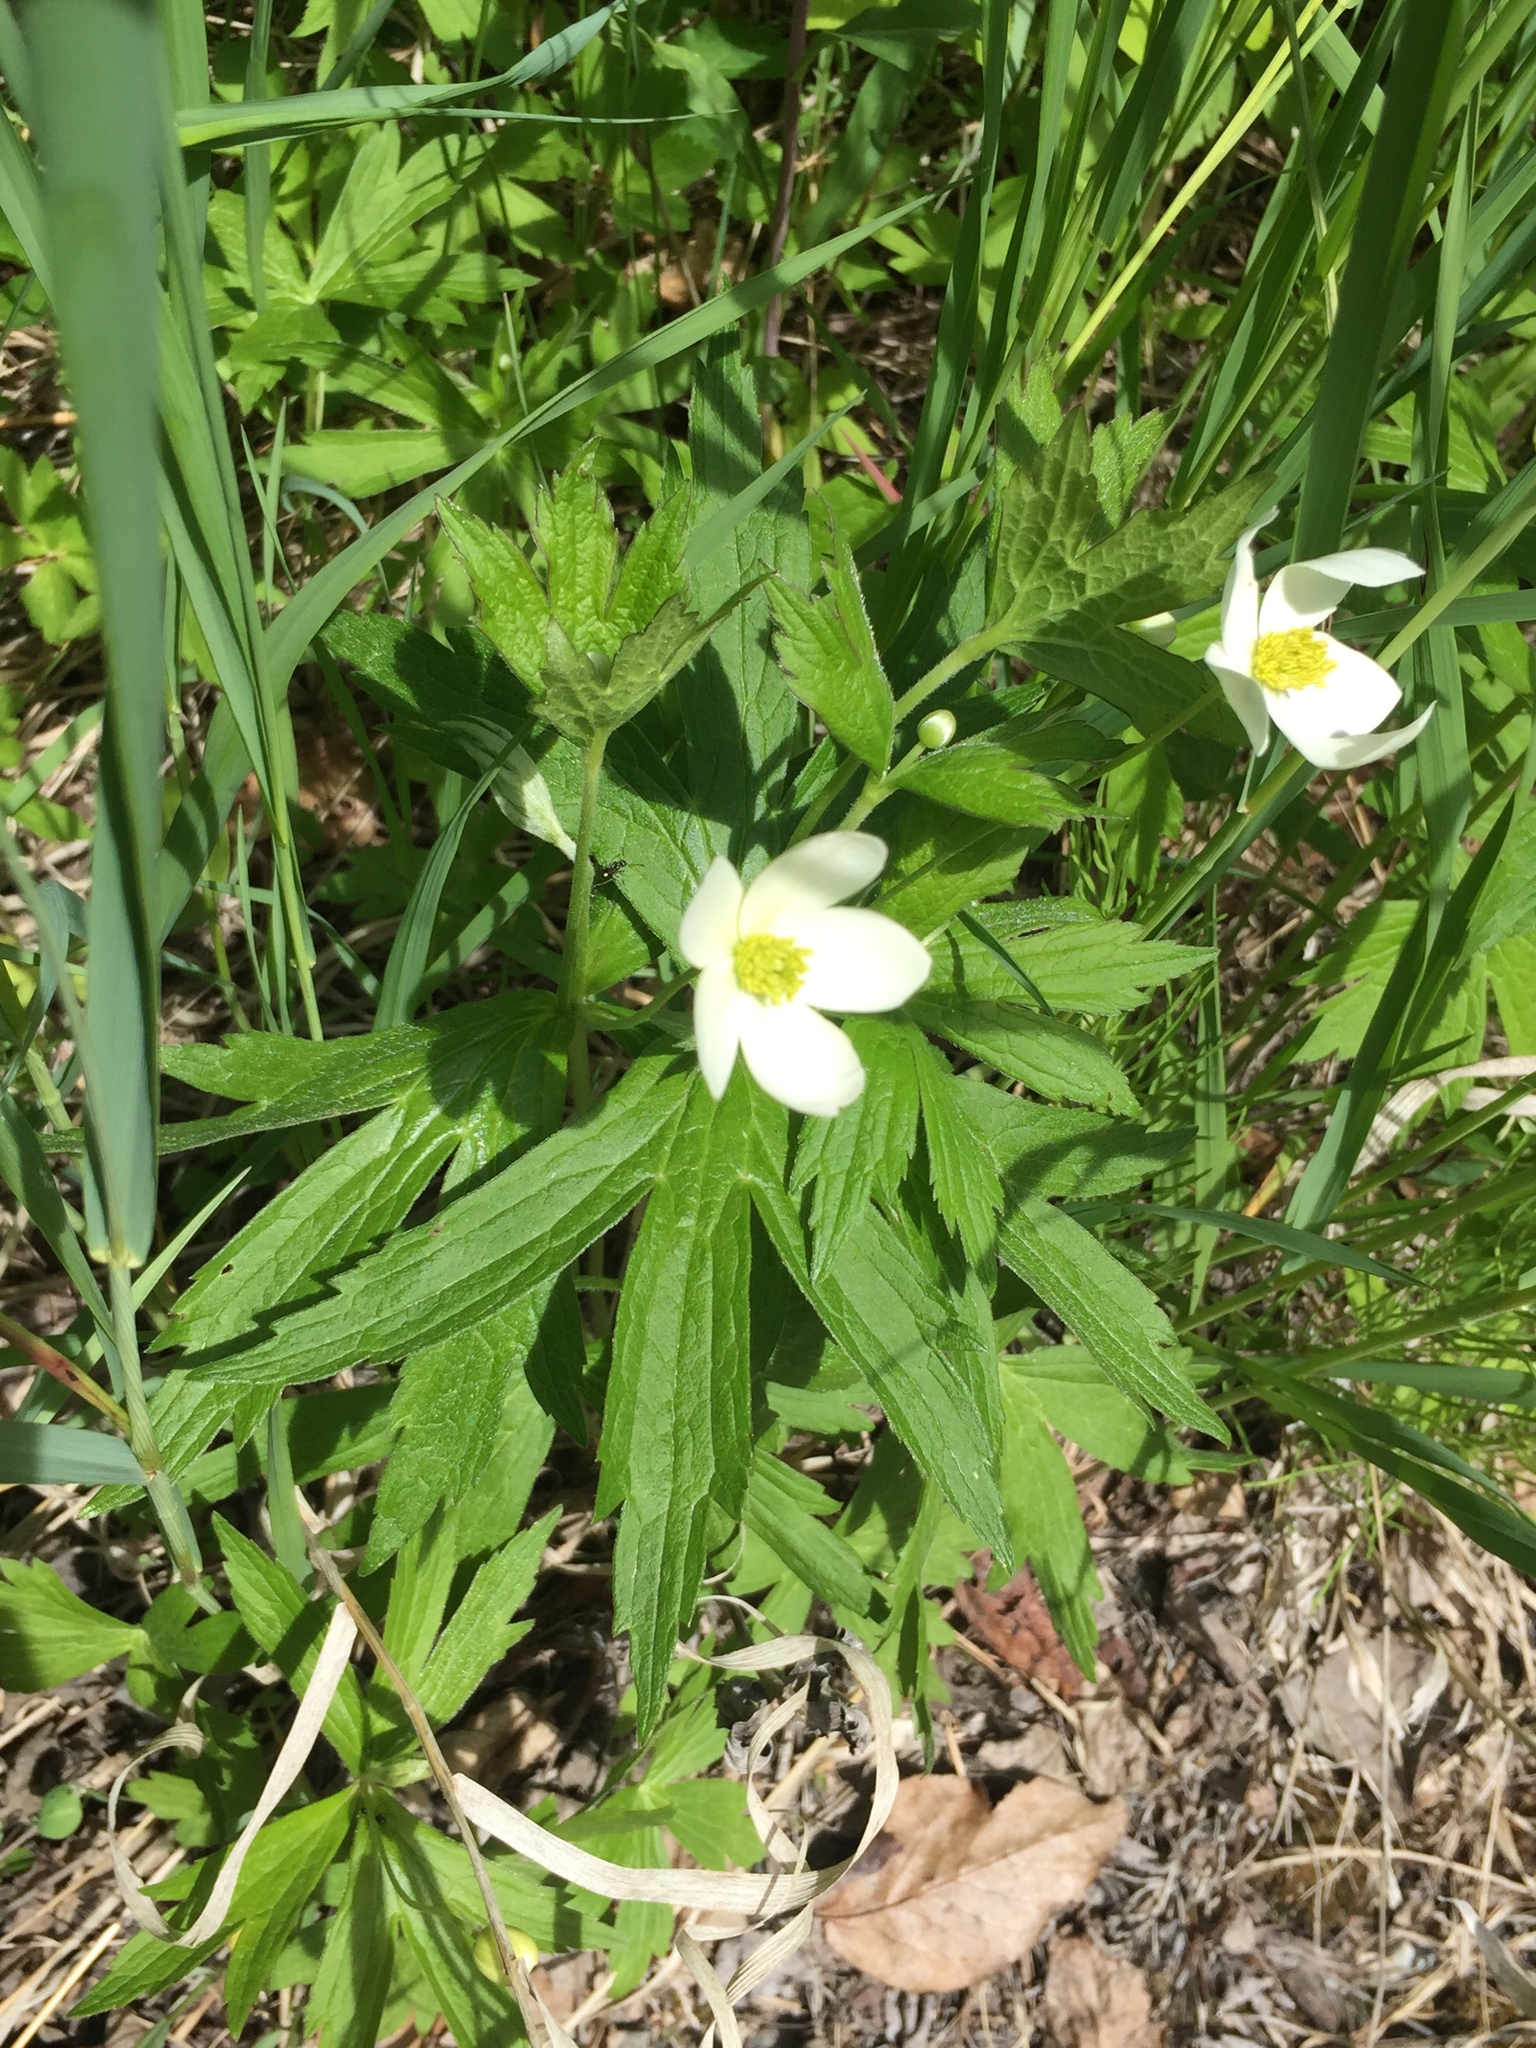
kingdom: Plantae
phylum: Tracheophyta
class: Magnoliopsida
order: Ranunculales
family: Ranunculaceae
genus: Anemonastrum
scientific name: Anemonastrum canadense
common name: Canada anemone
